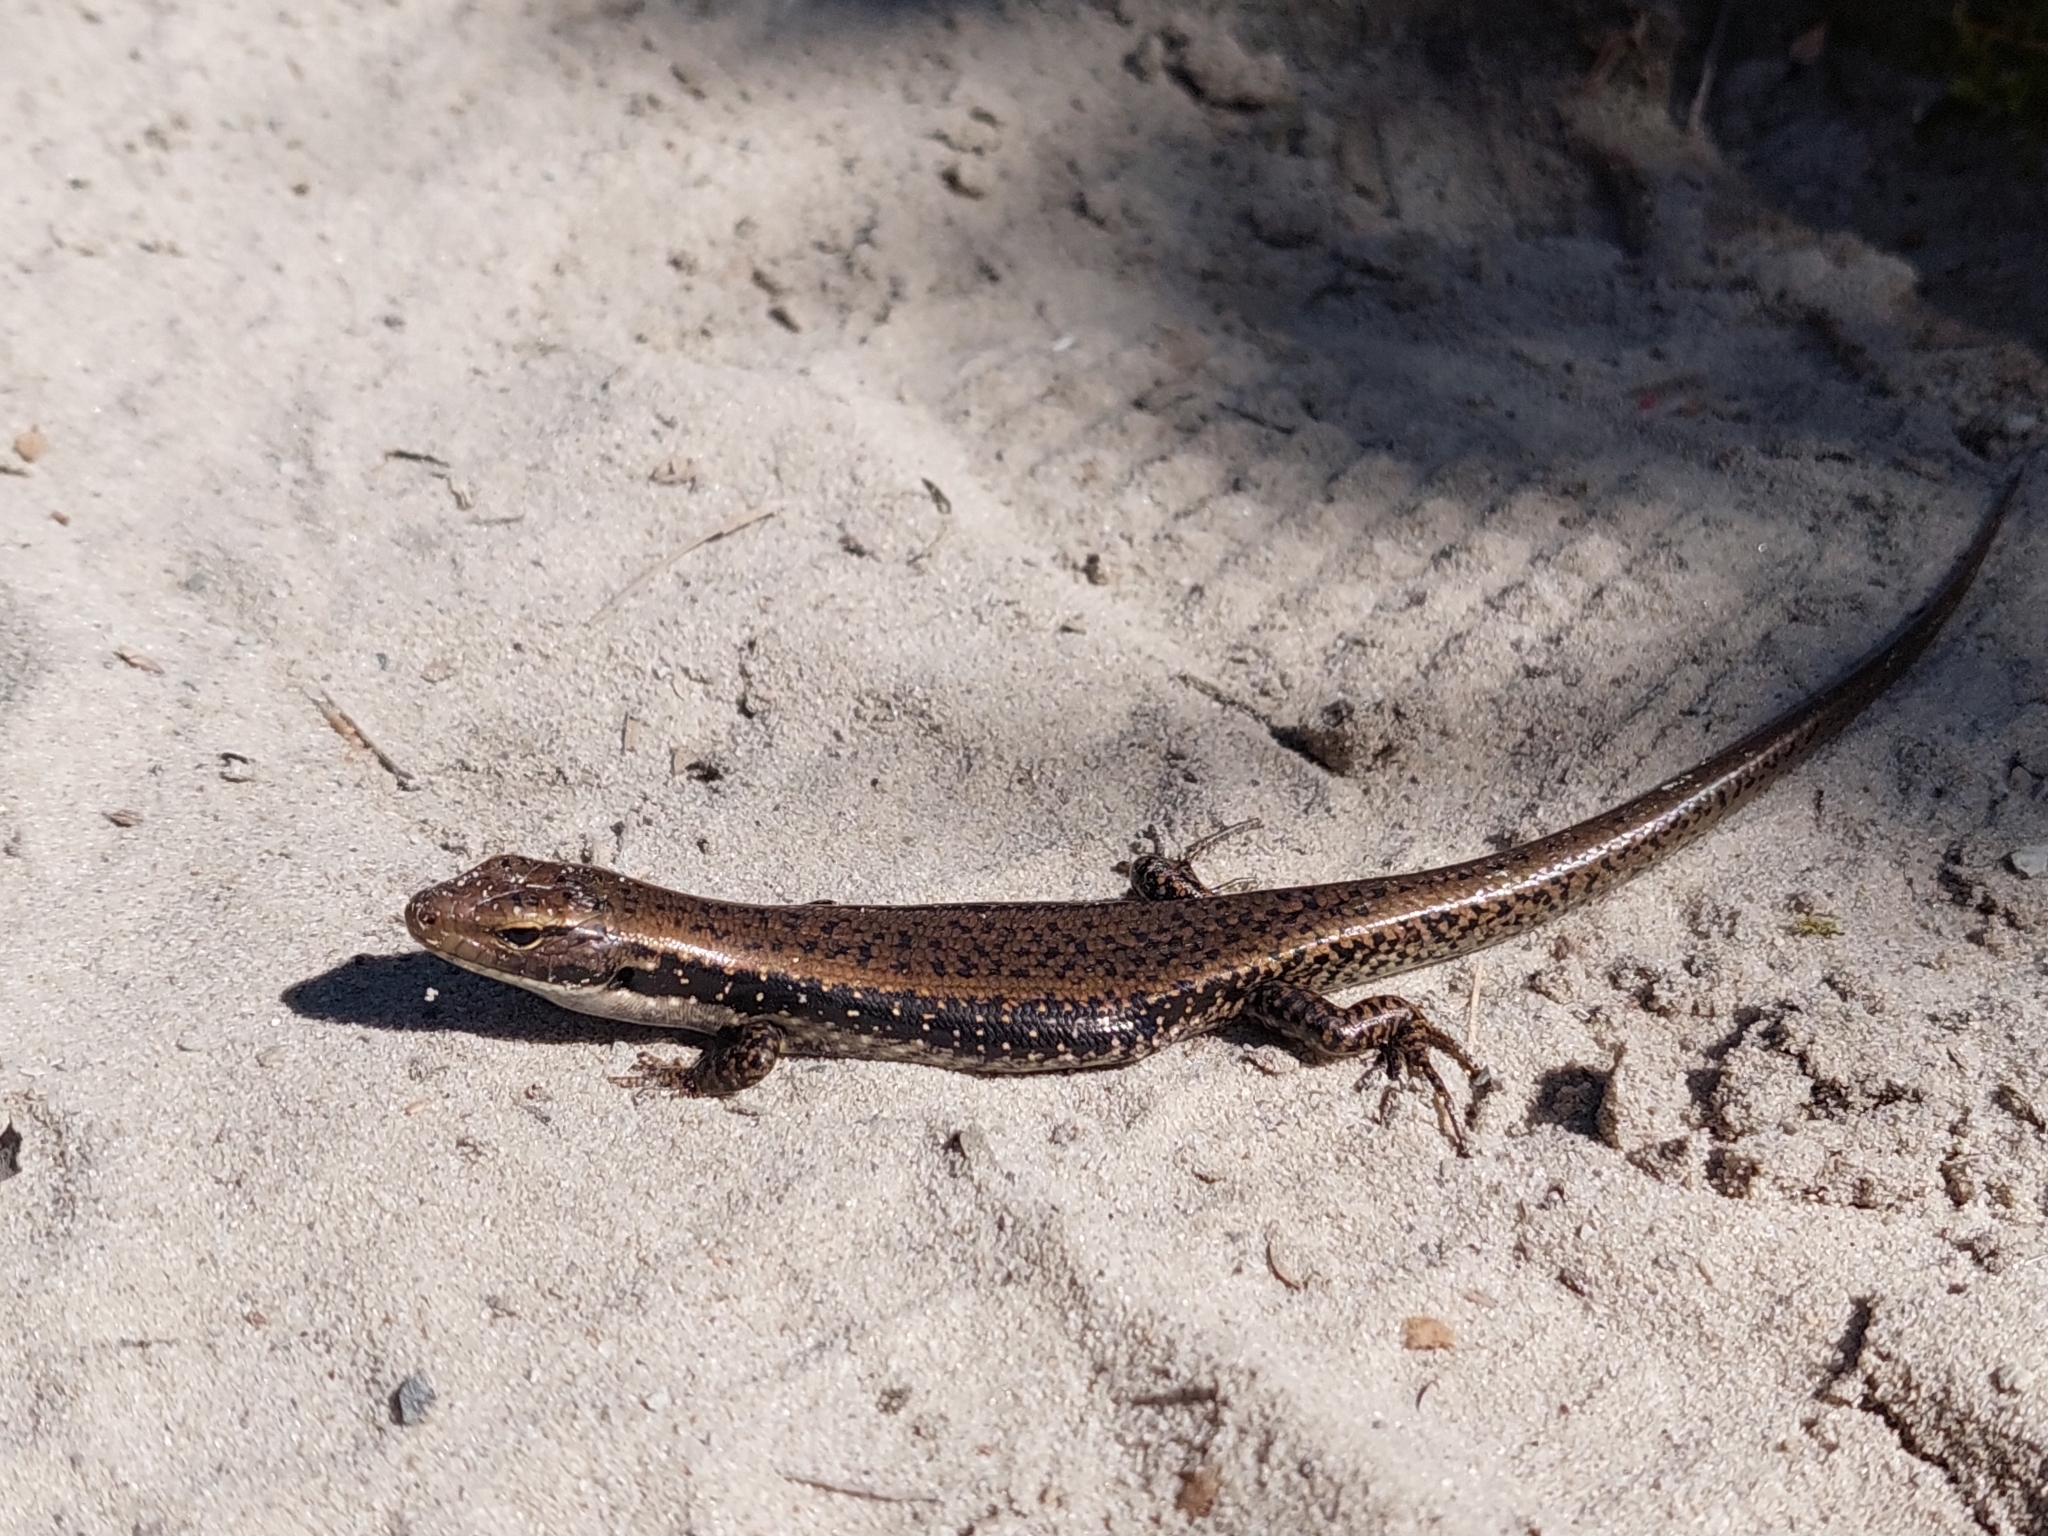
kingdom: Animalia
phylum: Chordata
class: Squamata
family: Scincidae
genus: Eulamprus
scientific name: Eulamprus tympanum
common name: Cool-temperate water-skink
